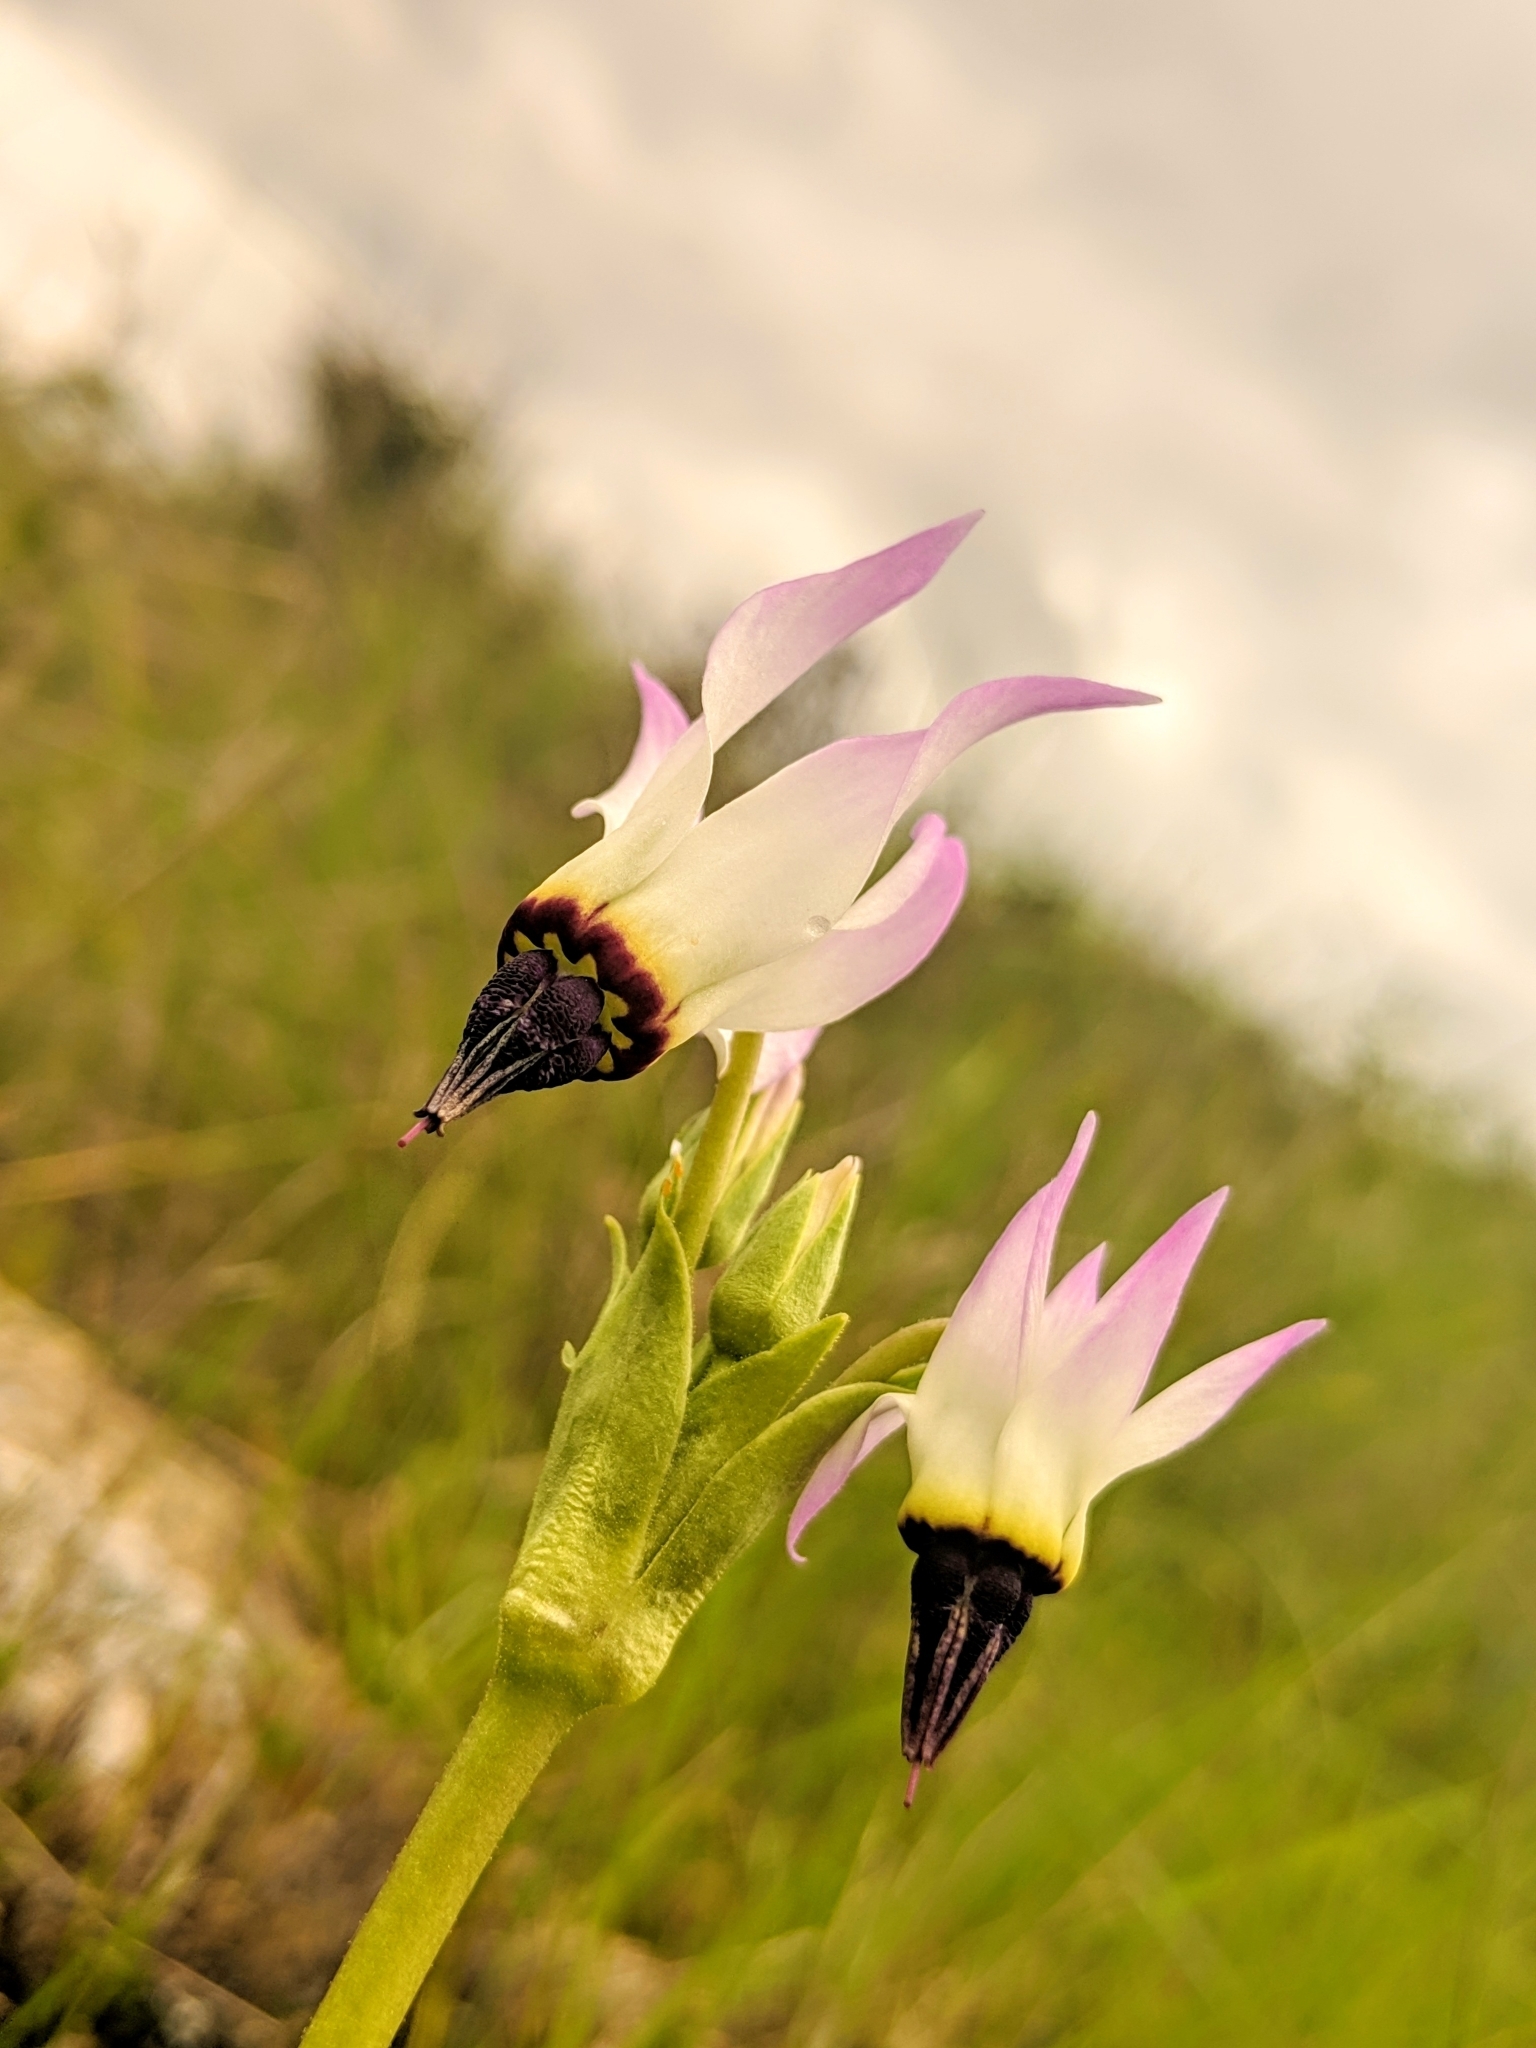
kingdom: Plantae
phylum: Tracheophyta
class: Magnoliopsida
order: Ericales
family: Primulaceae
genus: Dodecatheon
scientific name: Dodecatheon clevelandii
